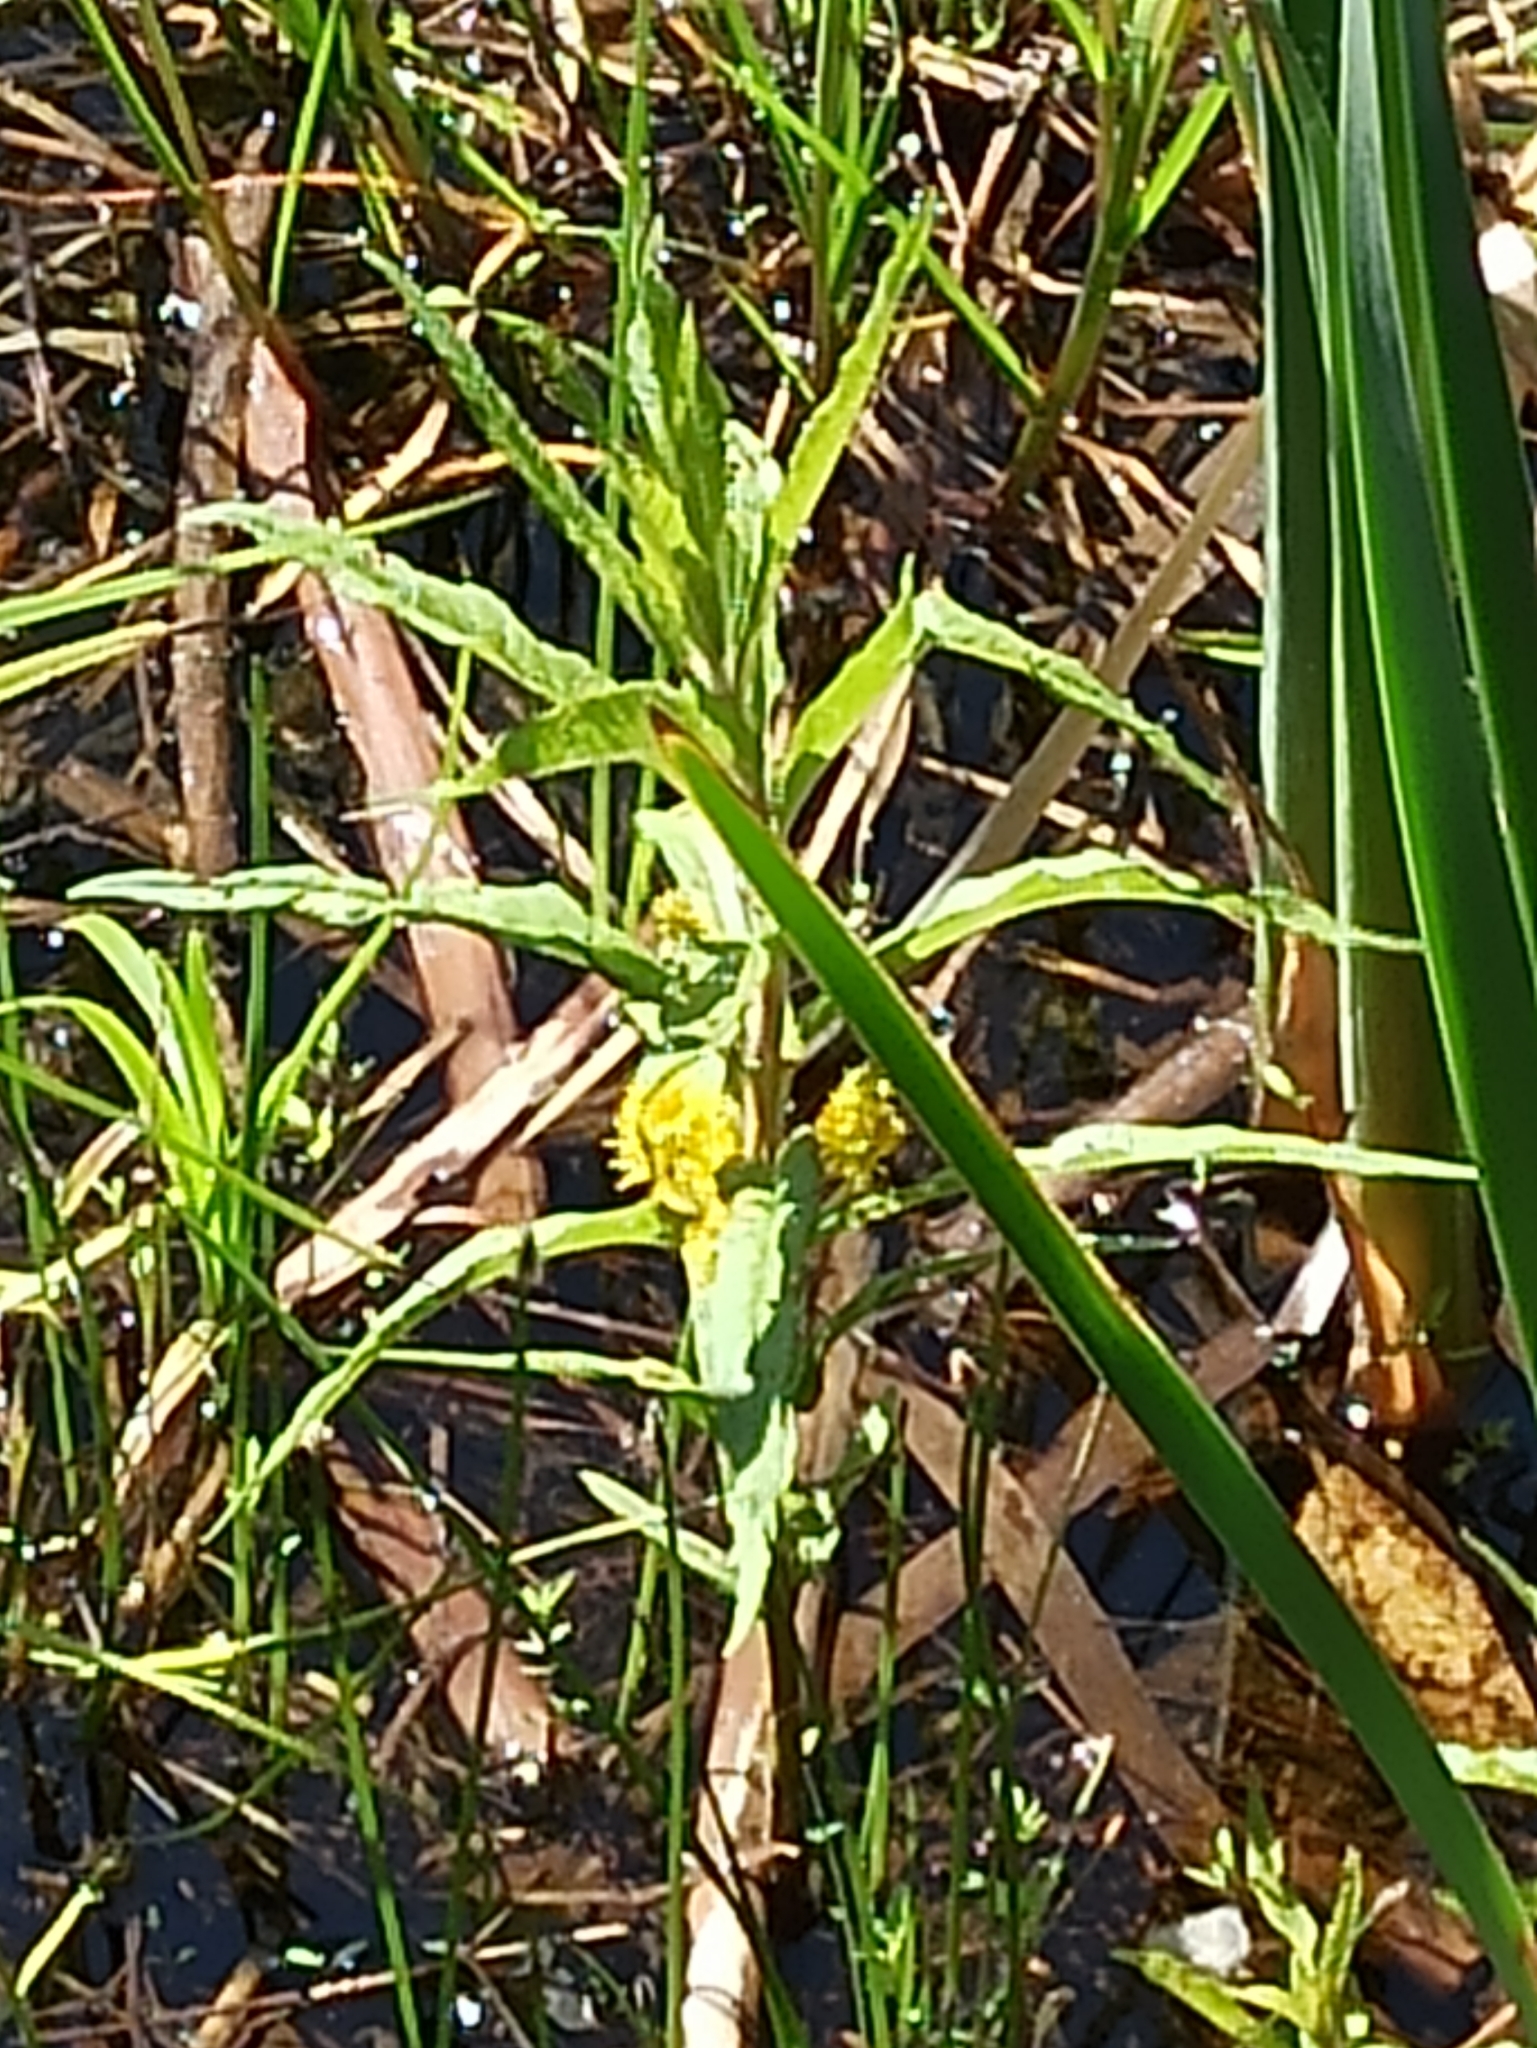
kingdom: Plantae
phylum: Tracheophyta
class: Magnoliopsida
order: Ericales
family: Primulaceae
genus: Lysimachia
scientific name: Lysimachia thyrsiflora
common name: Tufted loosestrife
